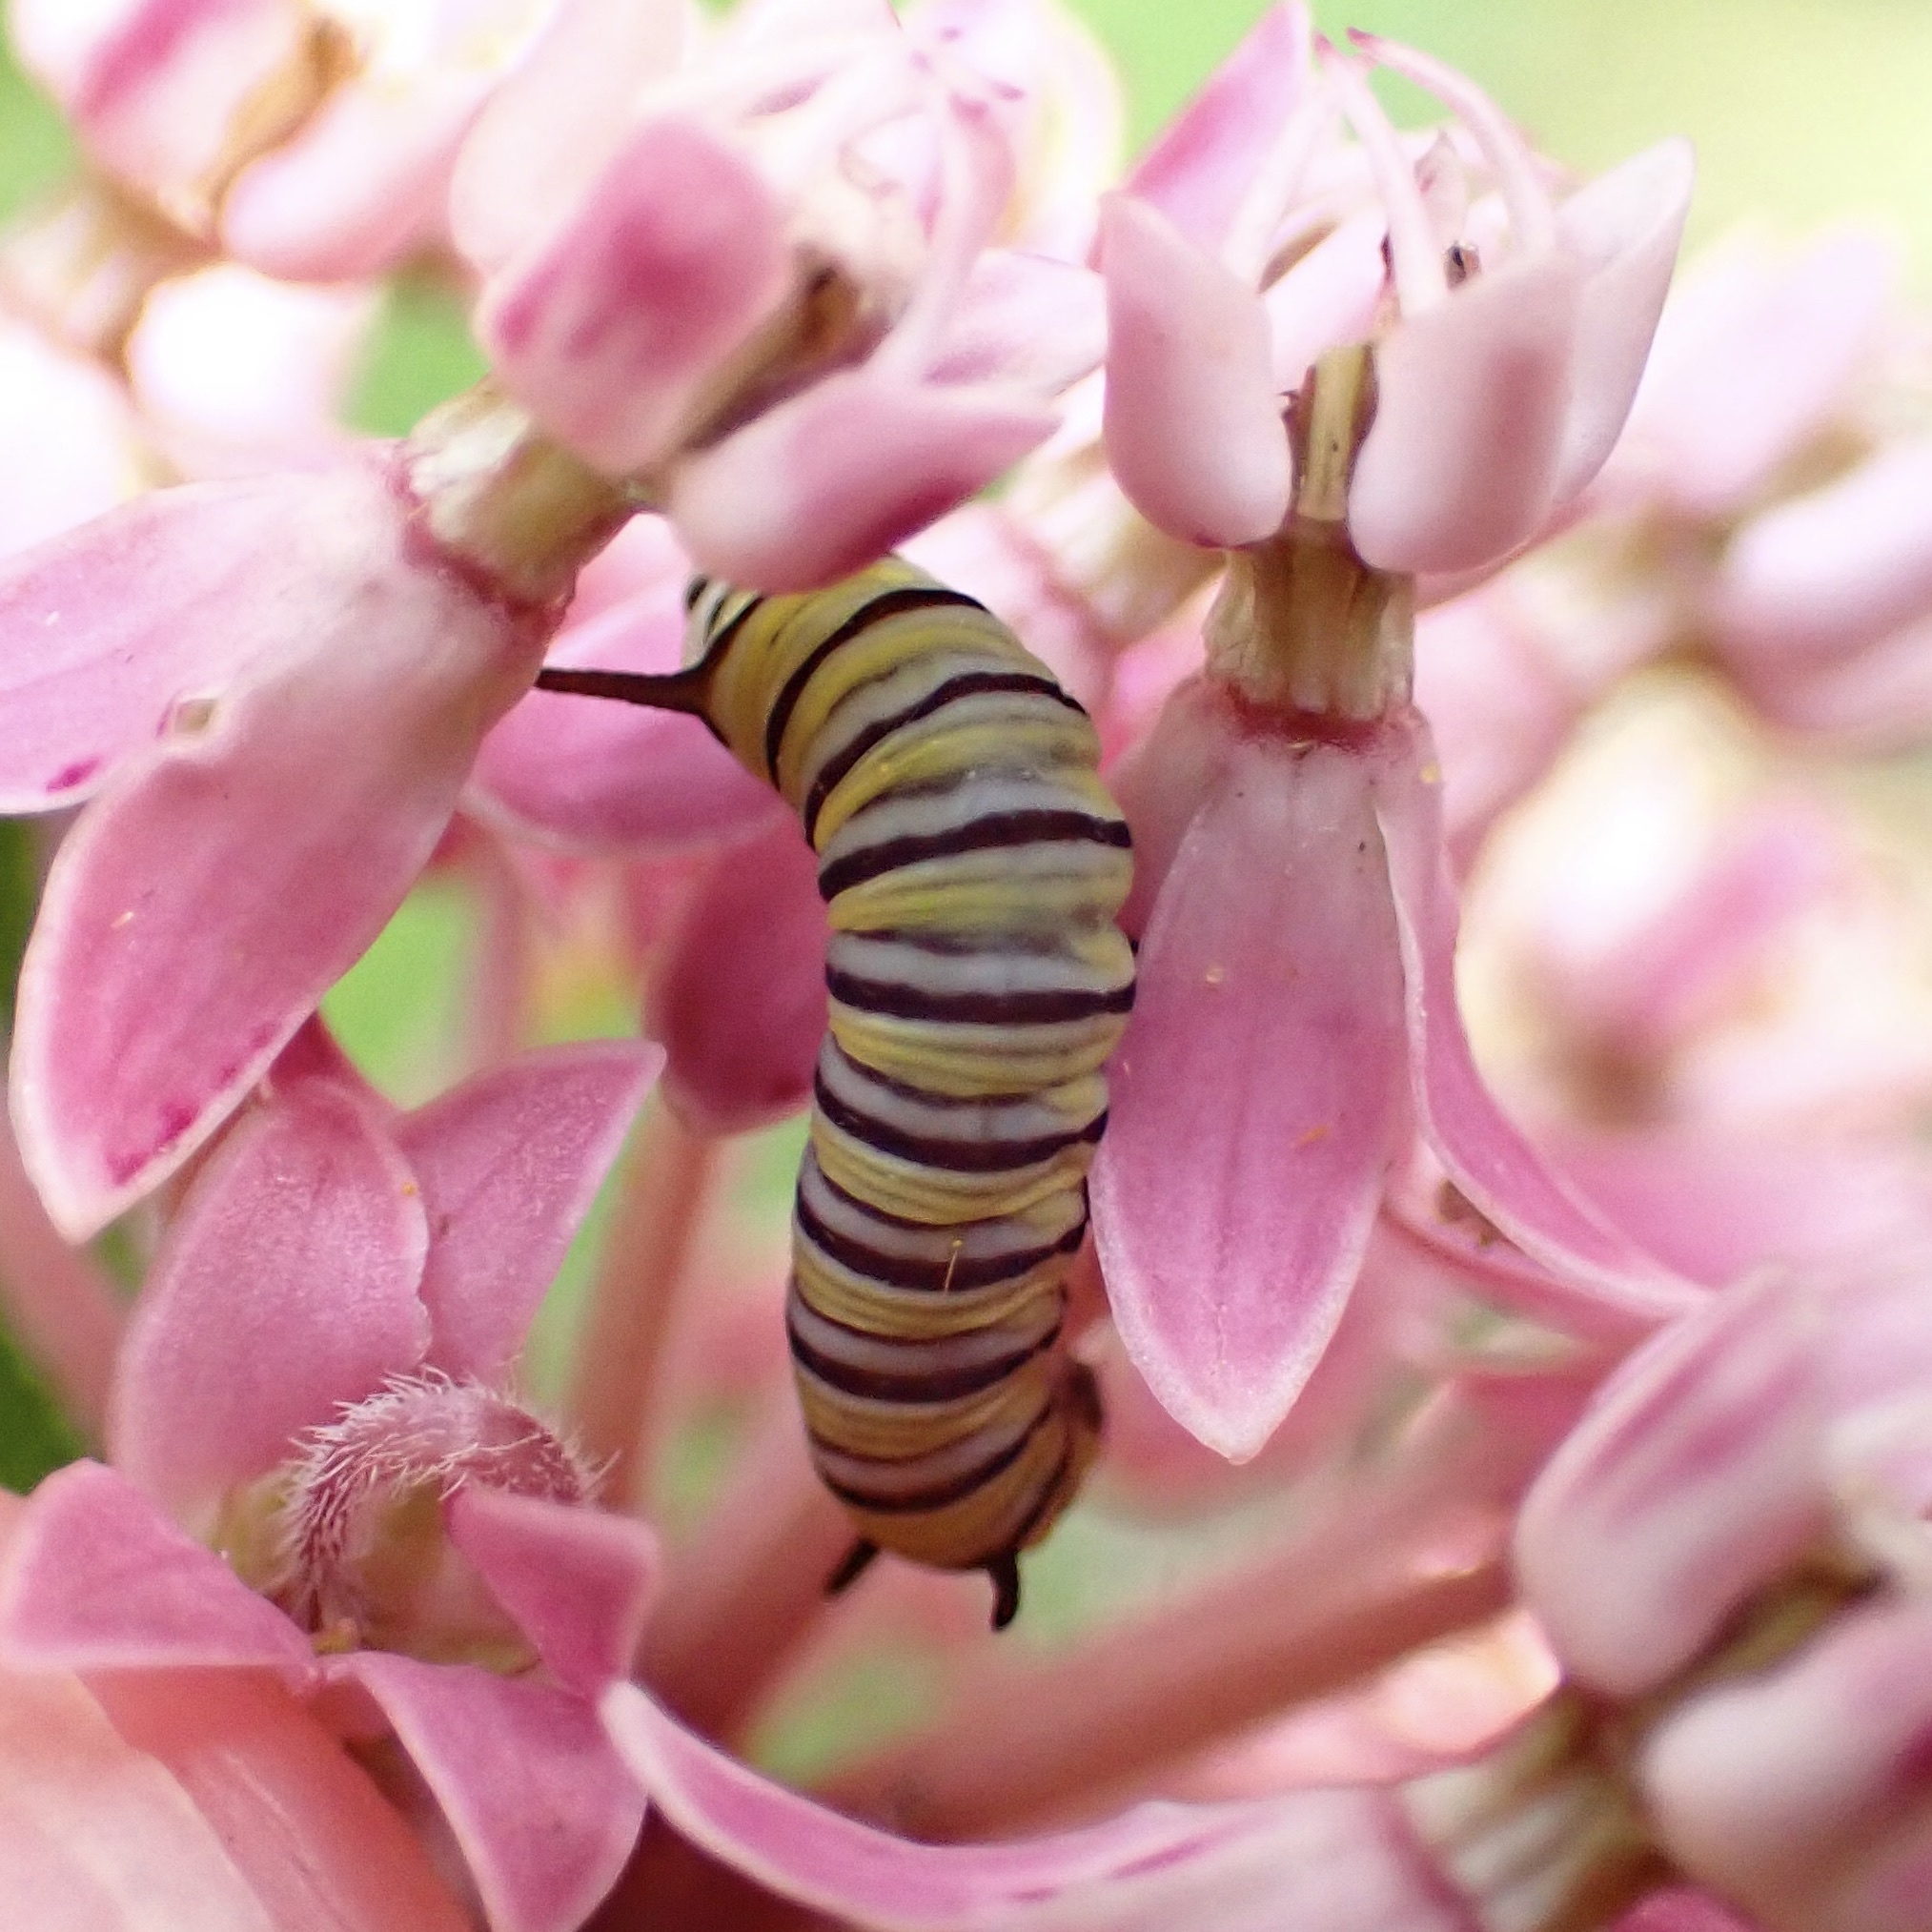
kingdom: Animalia
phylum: Arthropoda
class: Insecta
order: Lepidoptera
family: Nymphalidae
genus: Danaus
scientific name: Danaus plexippus
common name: Monarch
